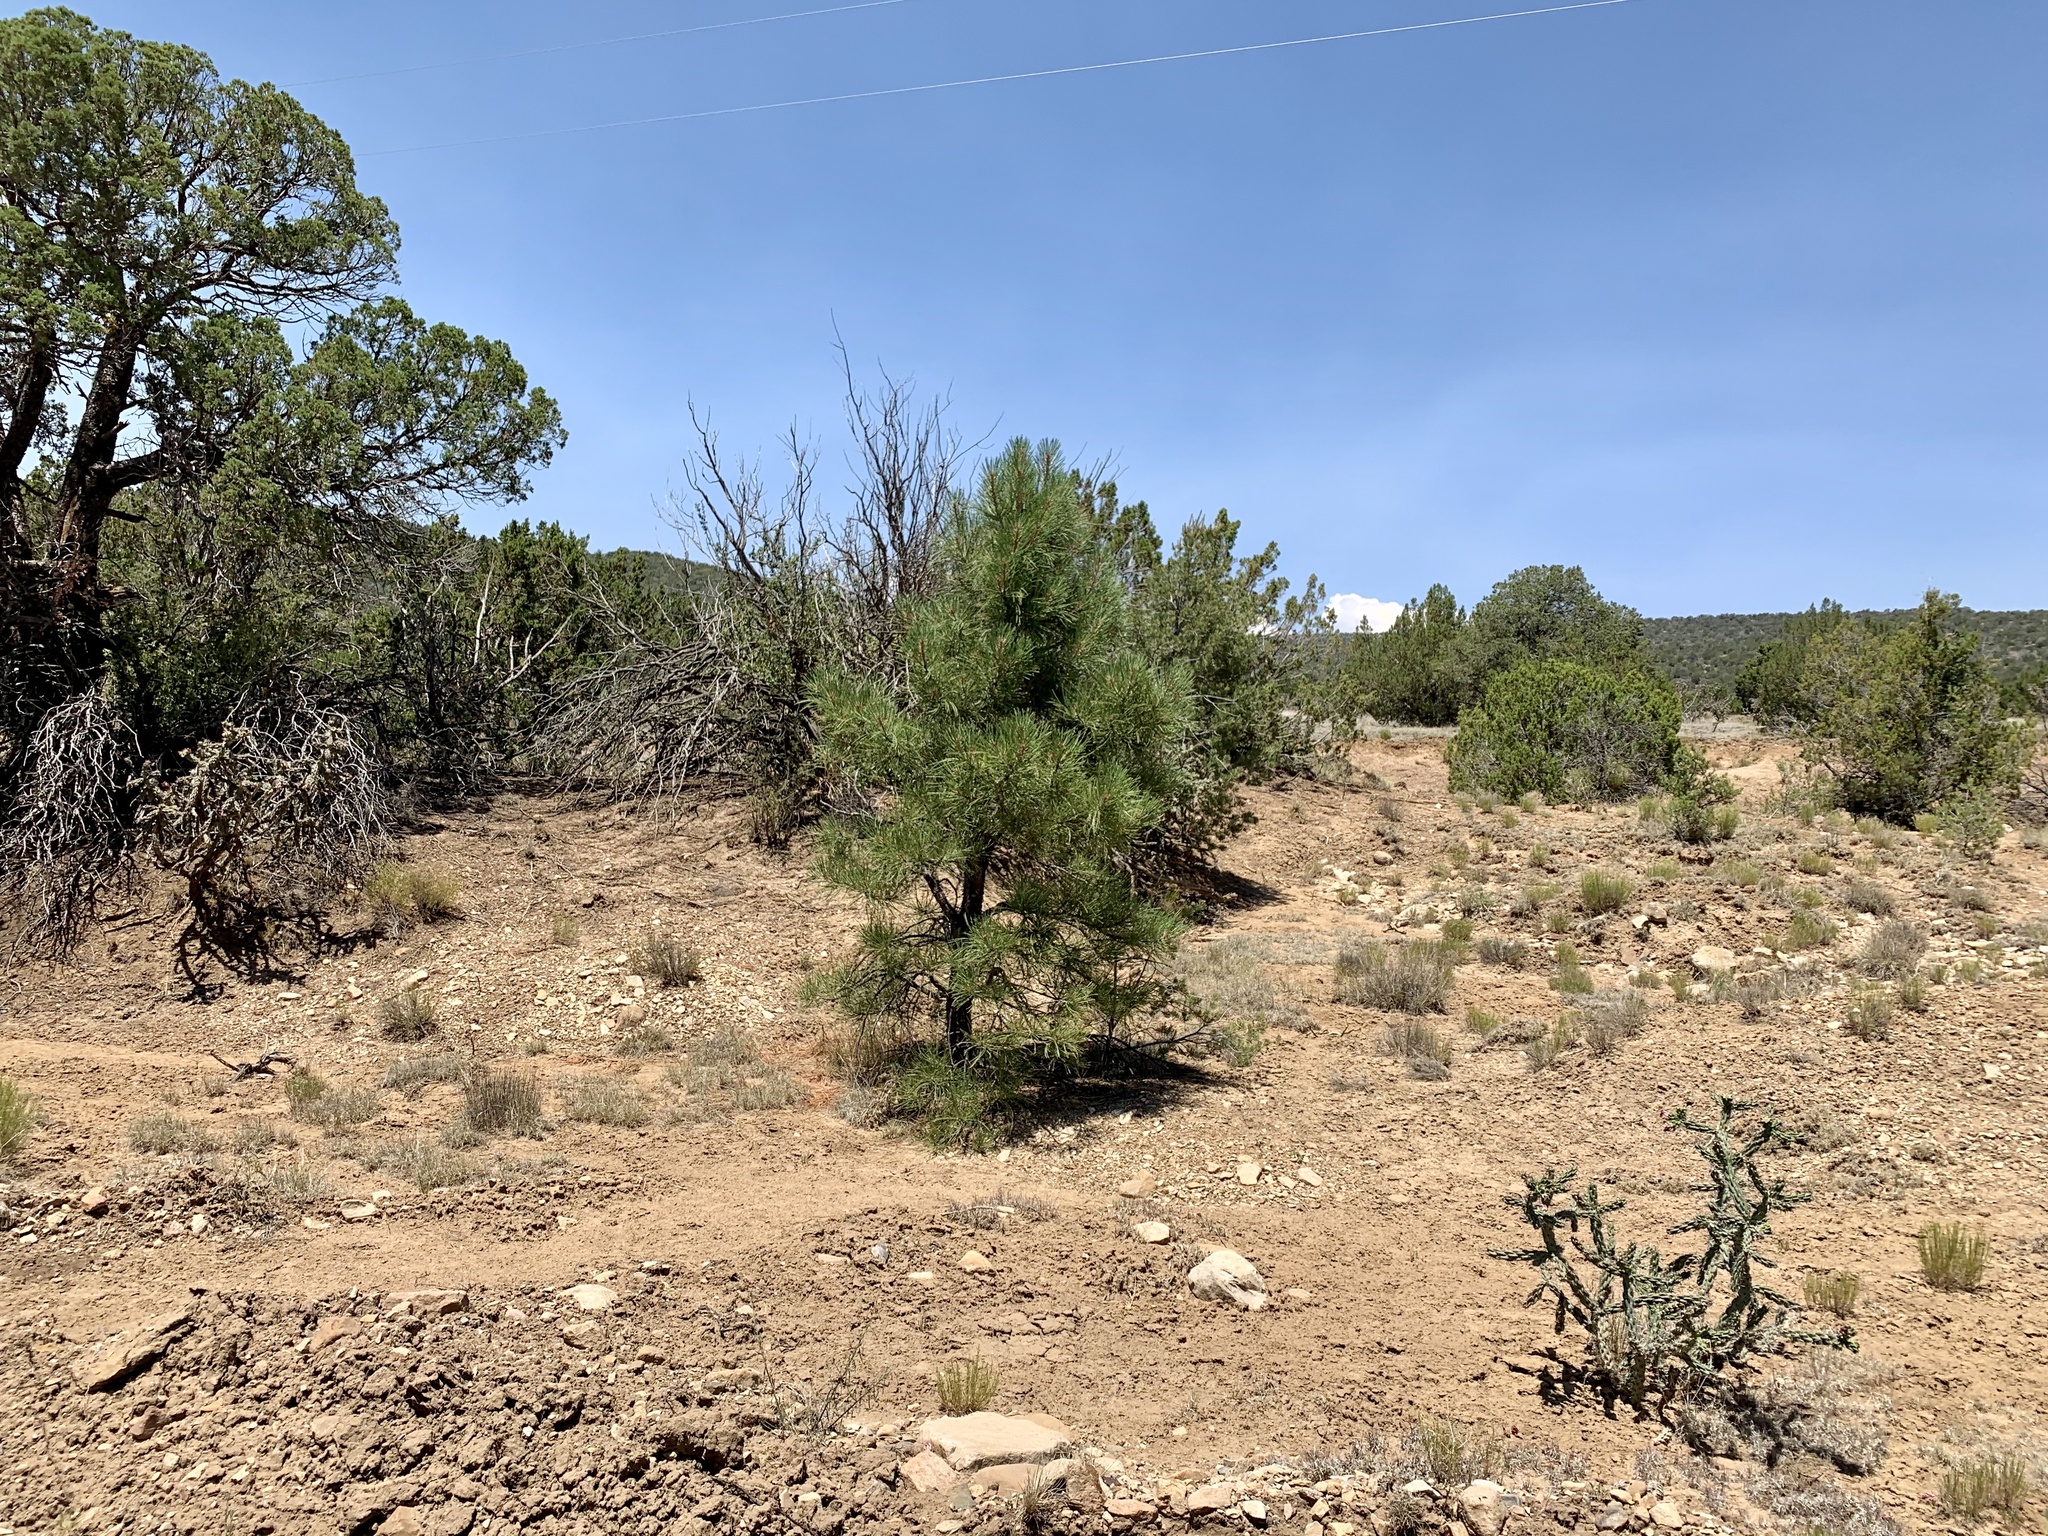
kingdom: Plantae
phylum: Tracheophyta
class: Pinopsida
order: Pinales
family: Pinaceae
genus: Pinus
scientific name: Pinus ponderosa
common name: Western yellow-pine
